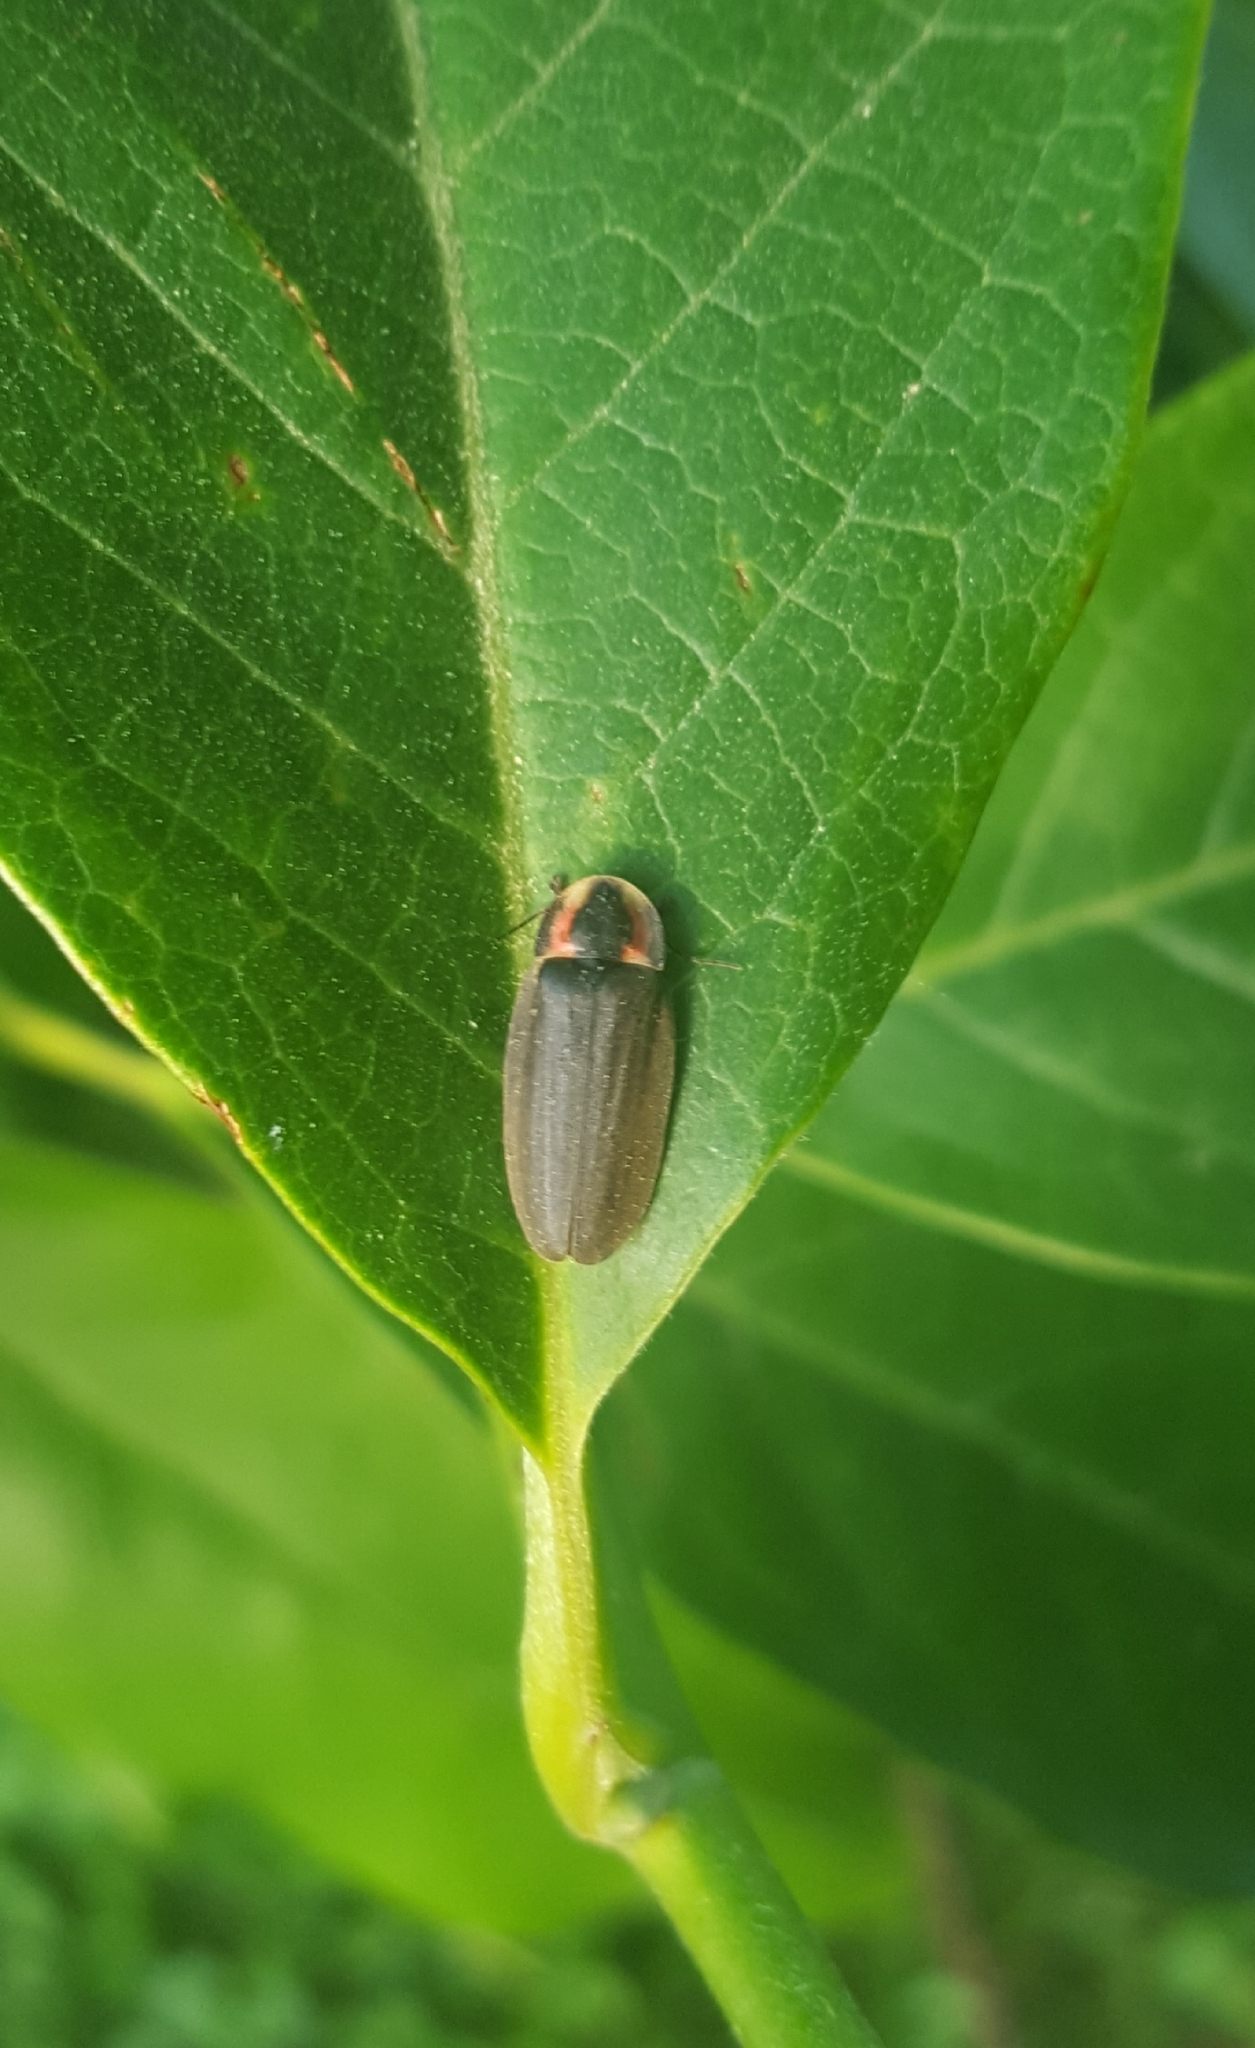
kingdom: Animalia
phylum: Arthropoda
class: Insecta
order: Coleoptera
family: Lampyridae
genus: Photinus
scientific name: Photinus corrusca
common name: Winter firefly
